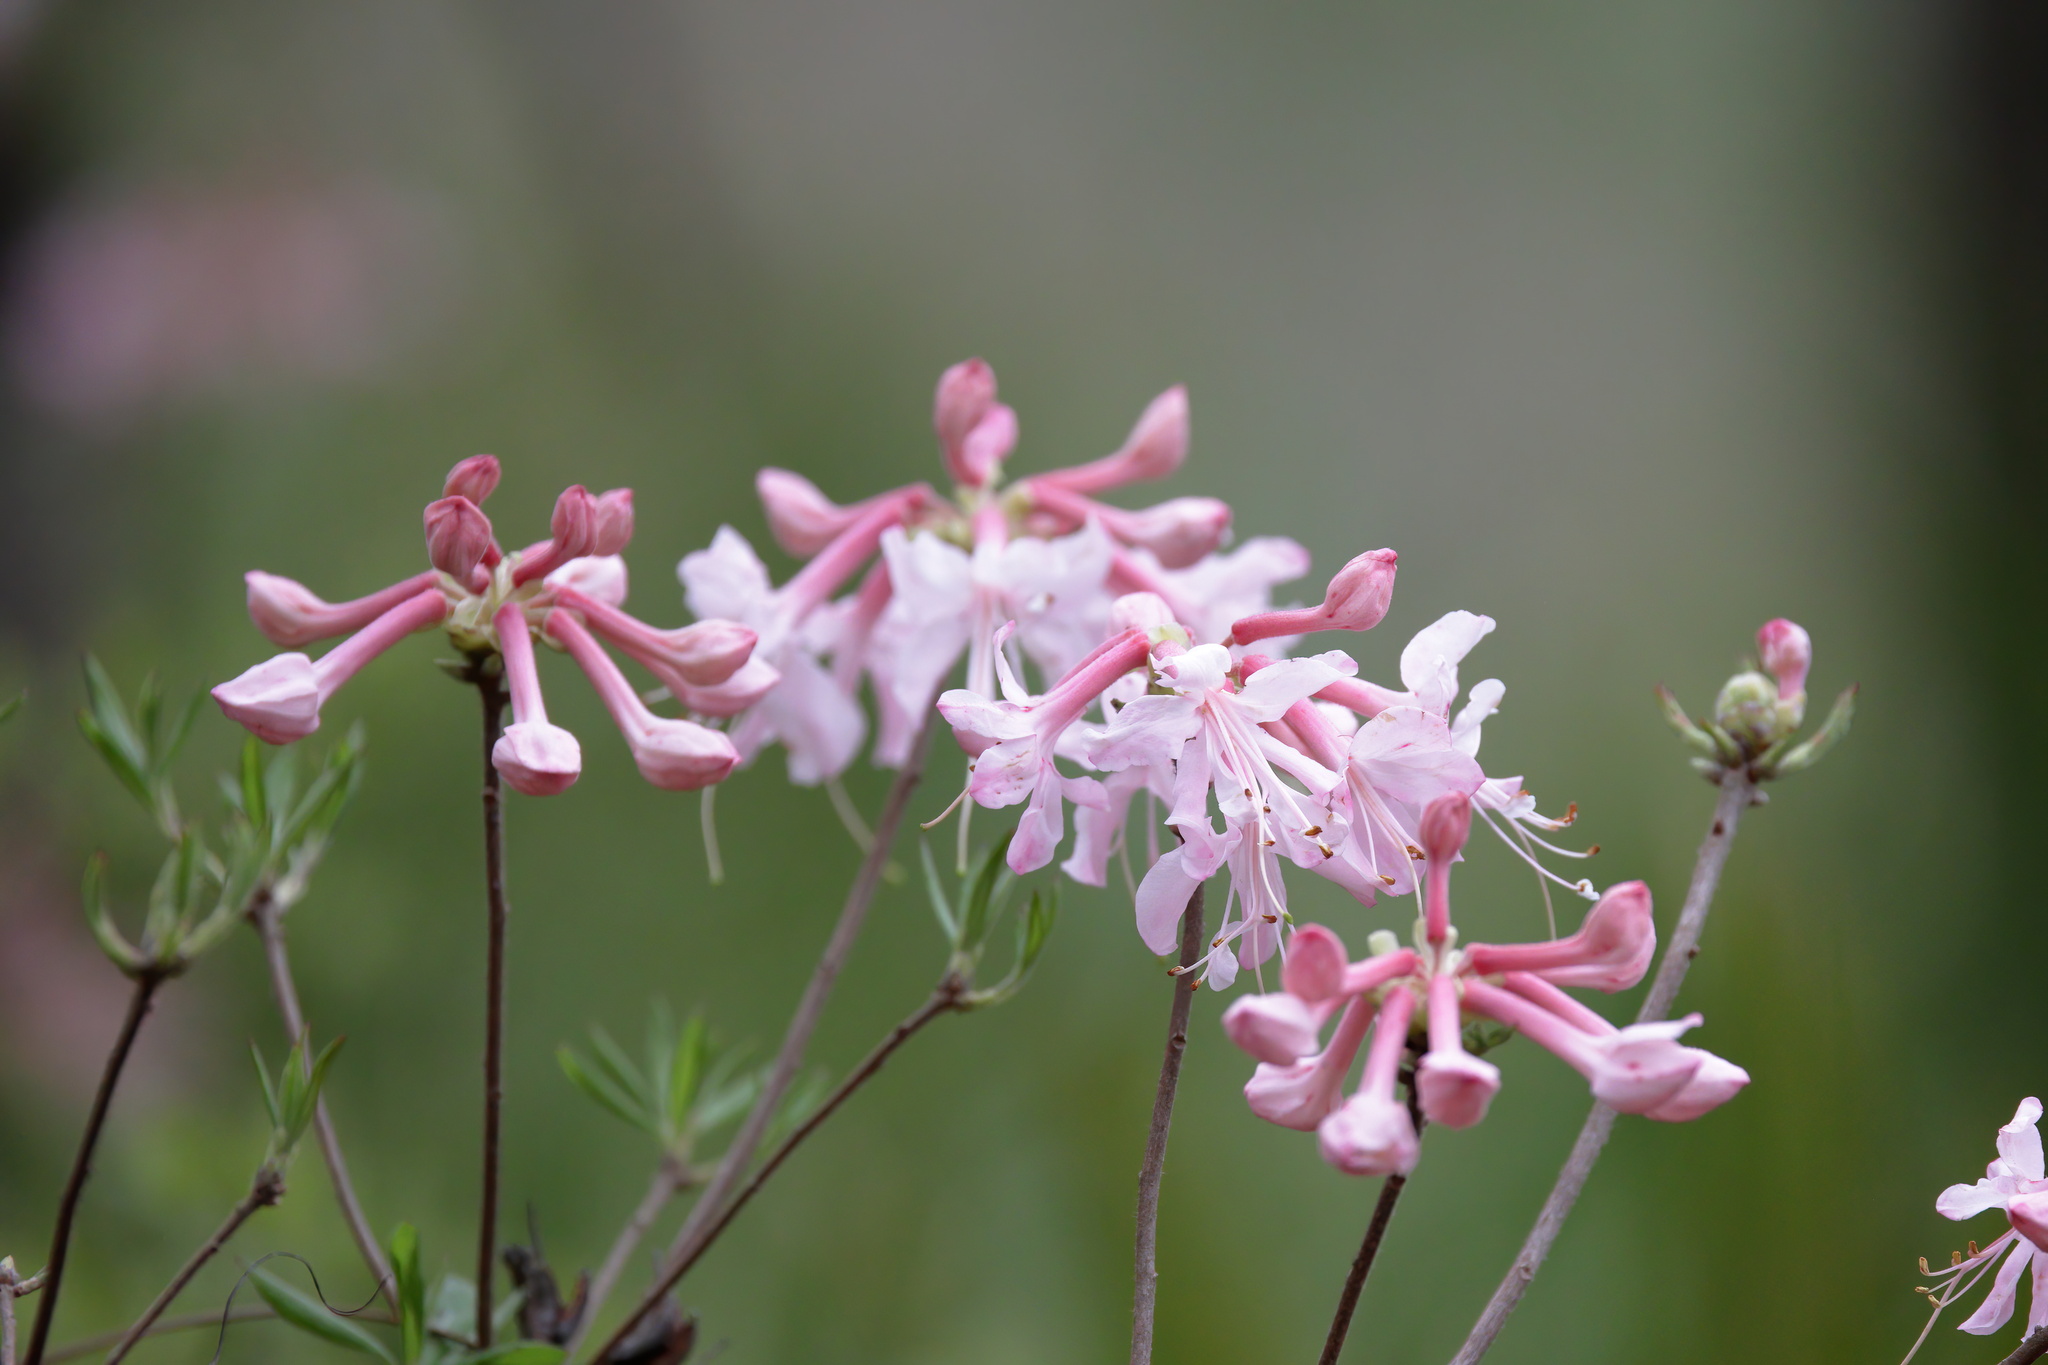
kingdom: Plantae
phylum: Tracheophyta
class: Magnoliopsida
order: Ericales
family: Ericaceae
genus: Rhododendron
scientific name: Rhododendron canescens
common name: Mountain azalea
